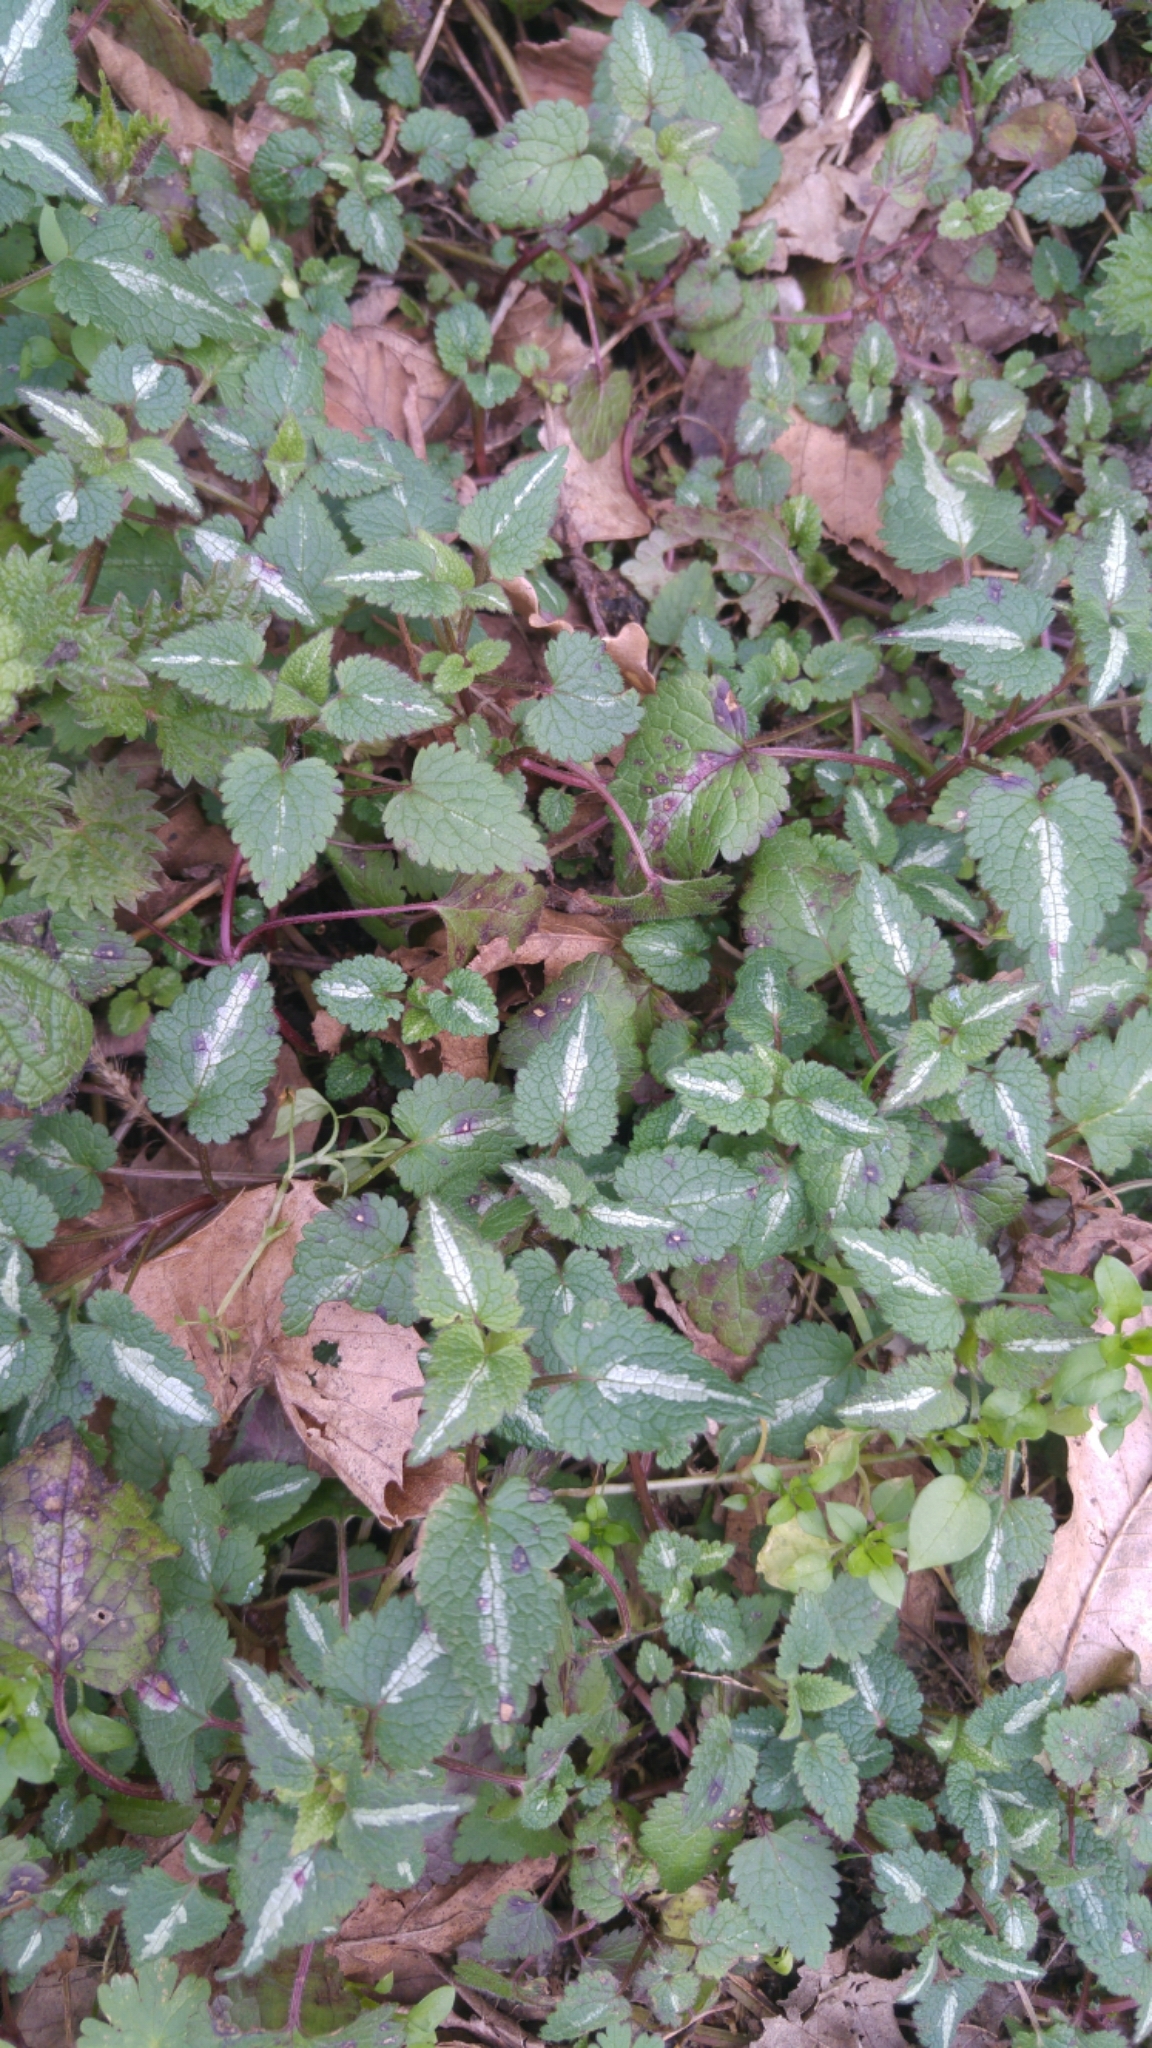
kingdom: Plantae
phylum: Tracheophyta
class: Magnoliopsida
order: Lamiales
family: Lamiaceae
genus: Lamium
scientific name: Lamium maculatum
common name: Spotted dead-nettle
